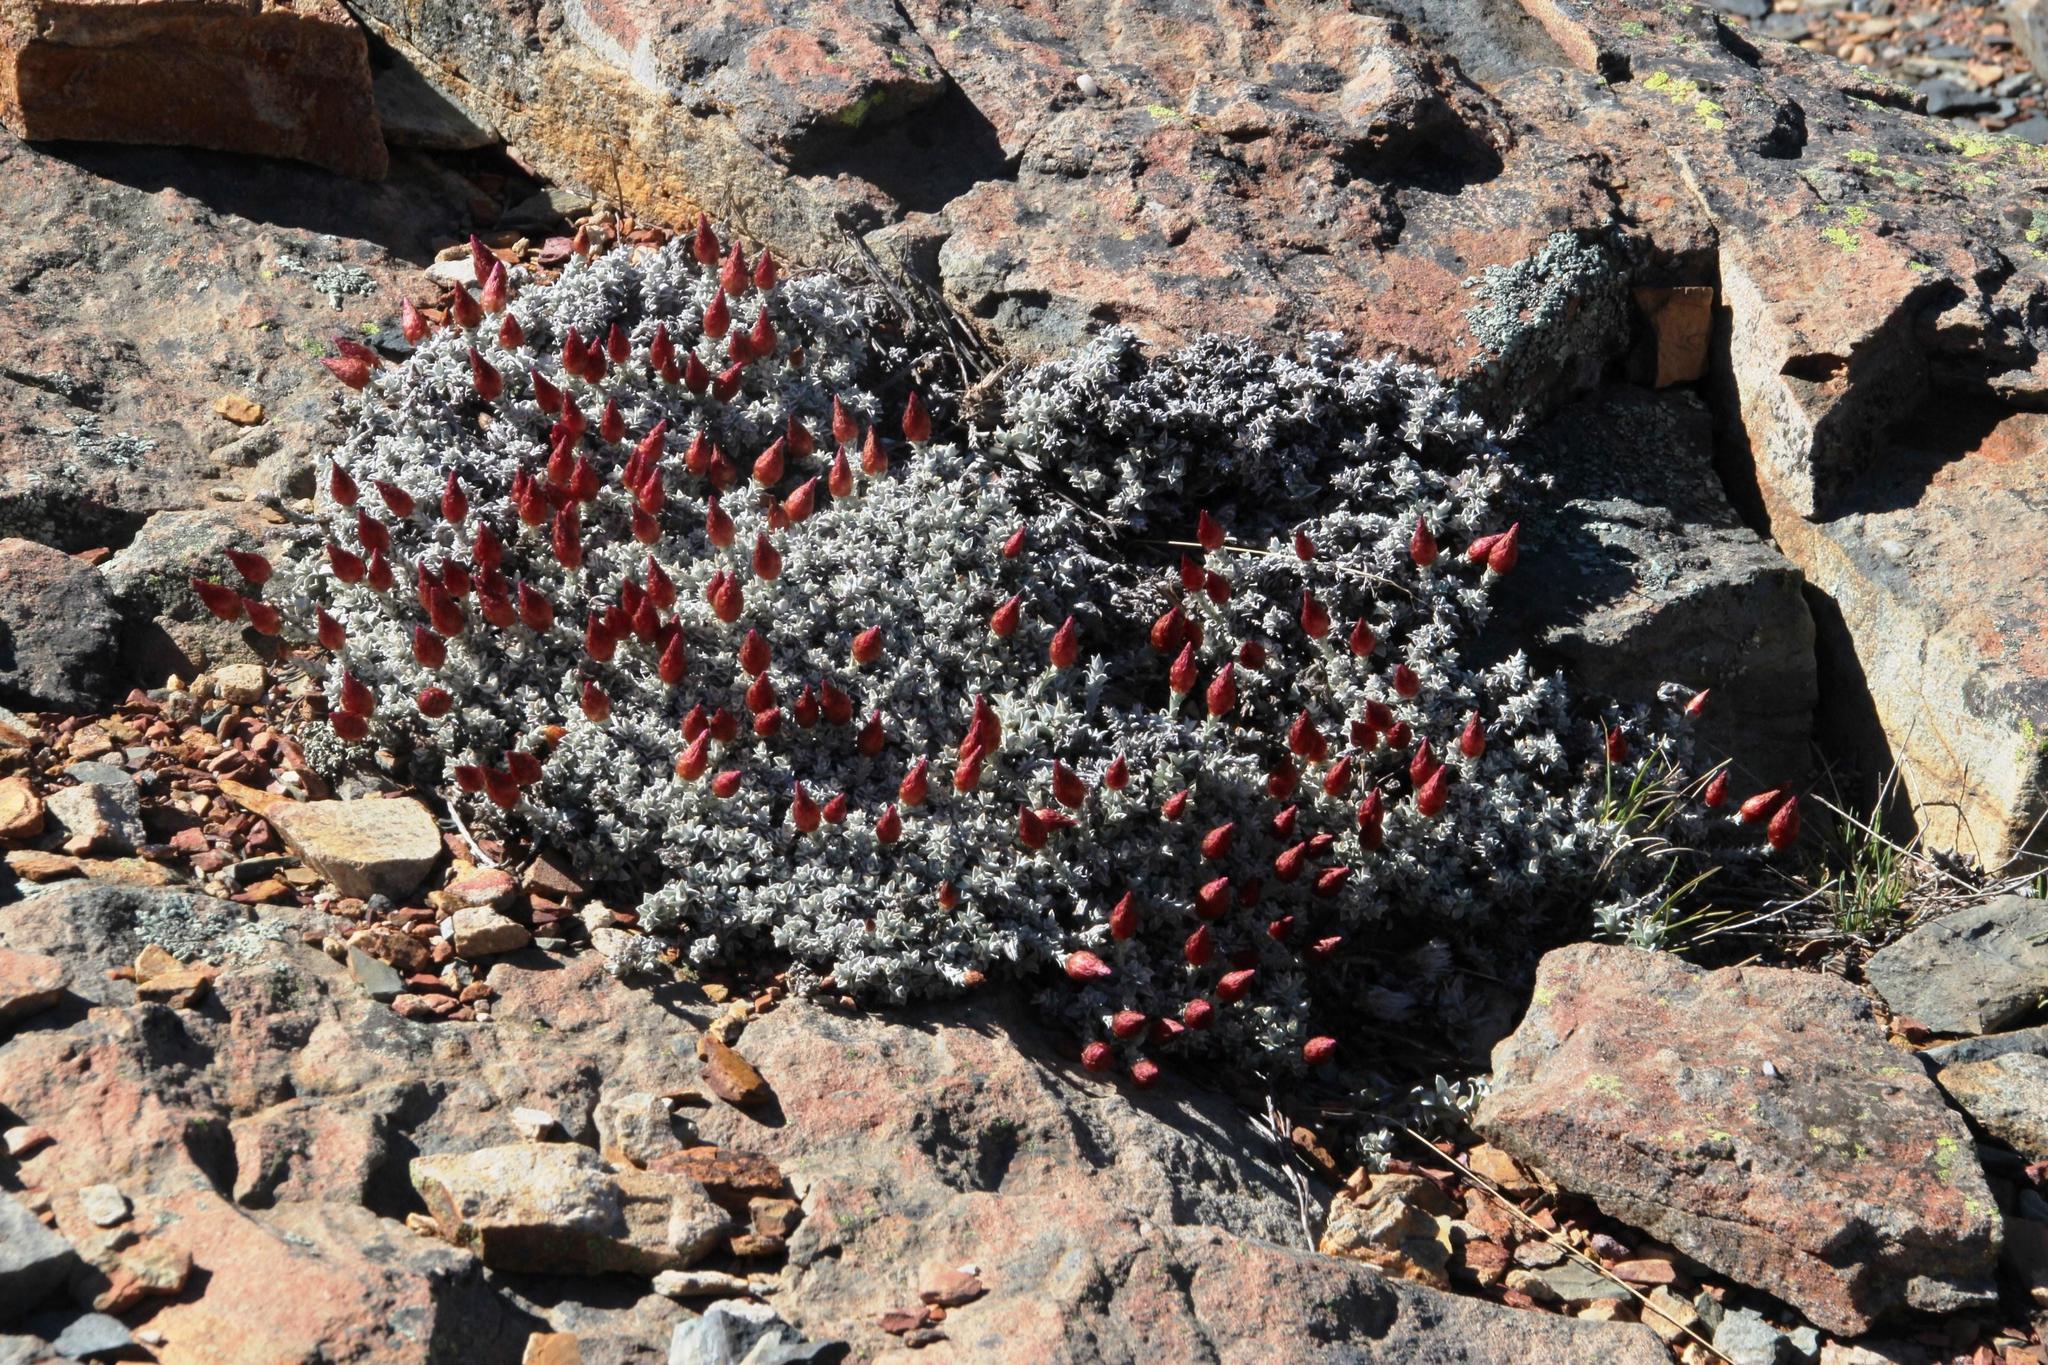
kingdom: Plantae
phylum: Tracheophyta
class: Magnoliopsida
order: Asterales
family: Asteraceae
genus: Syncarpha
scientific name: Syncarpha canescens
